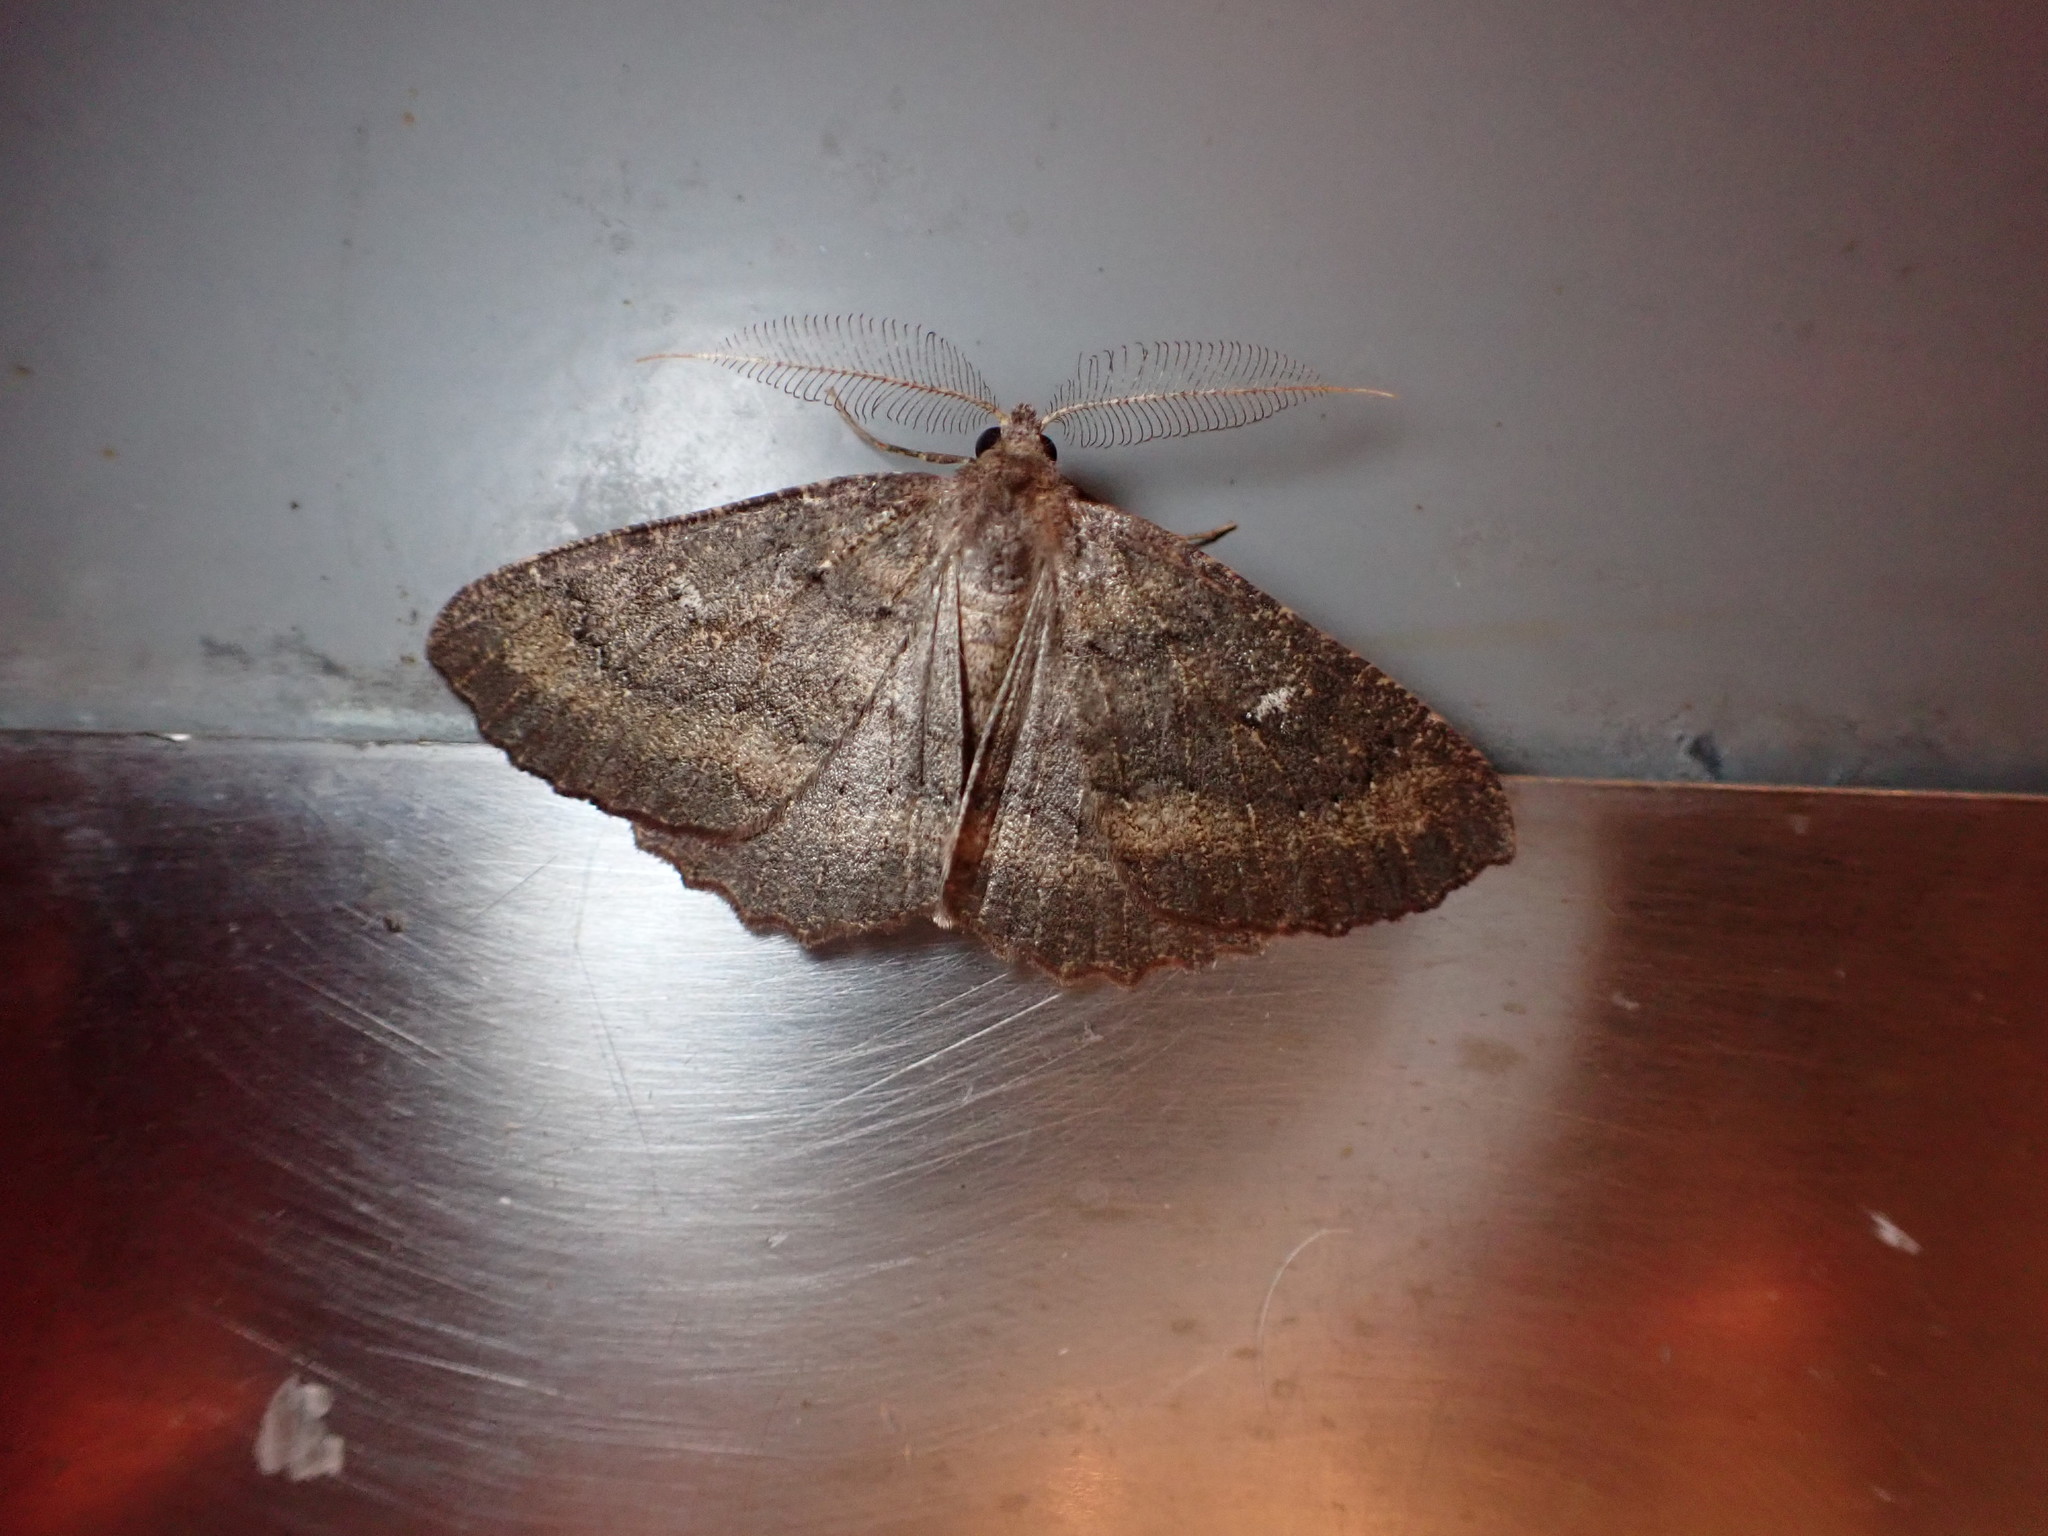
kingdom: Animalia
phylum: Arthropoda
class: Insecta
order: Lepidoptera
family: Geometridae
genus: Cleora
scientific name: Cleora scriptaria
